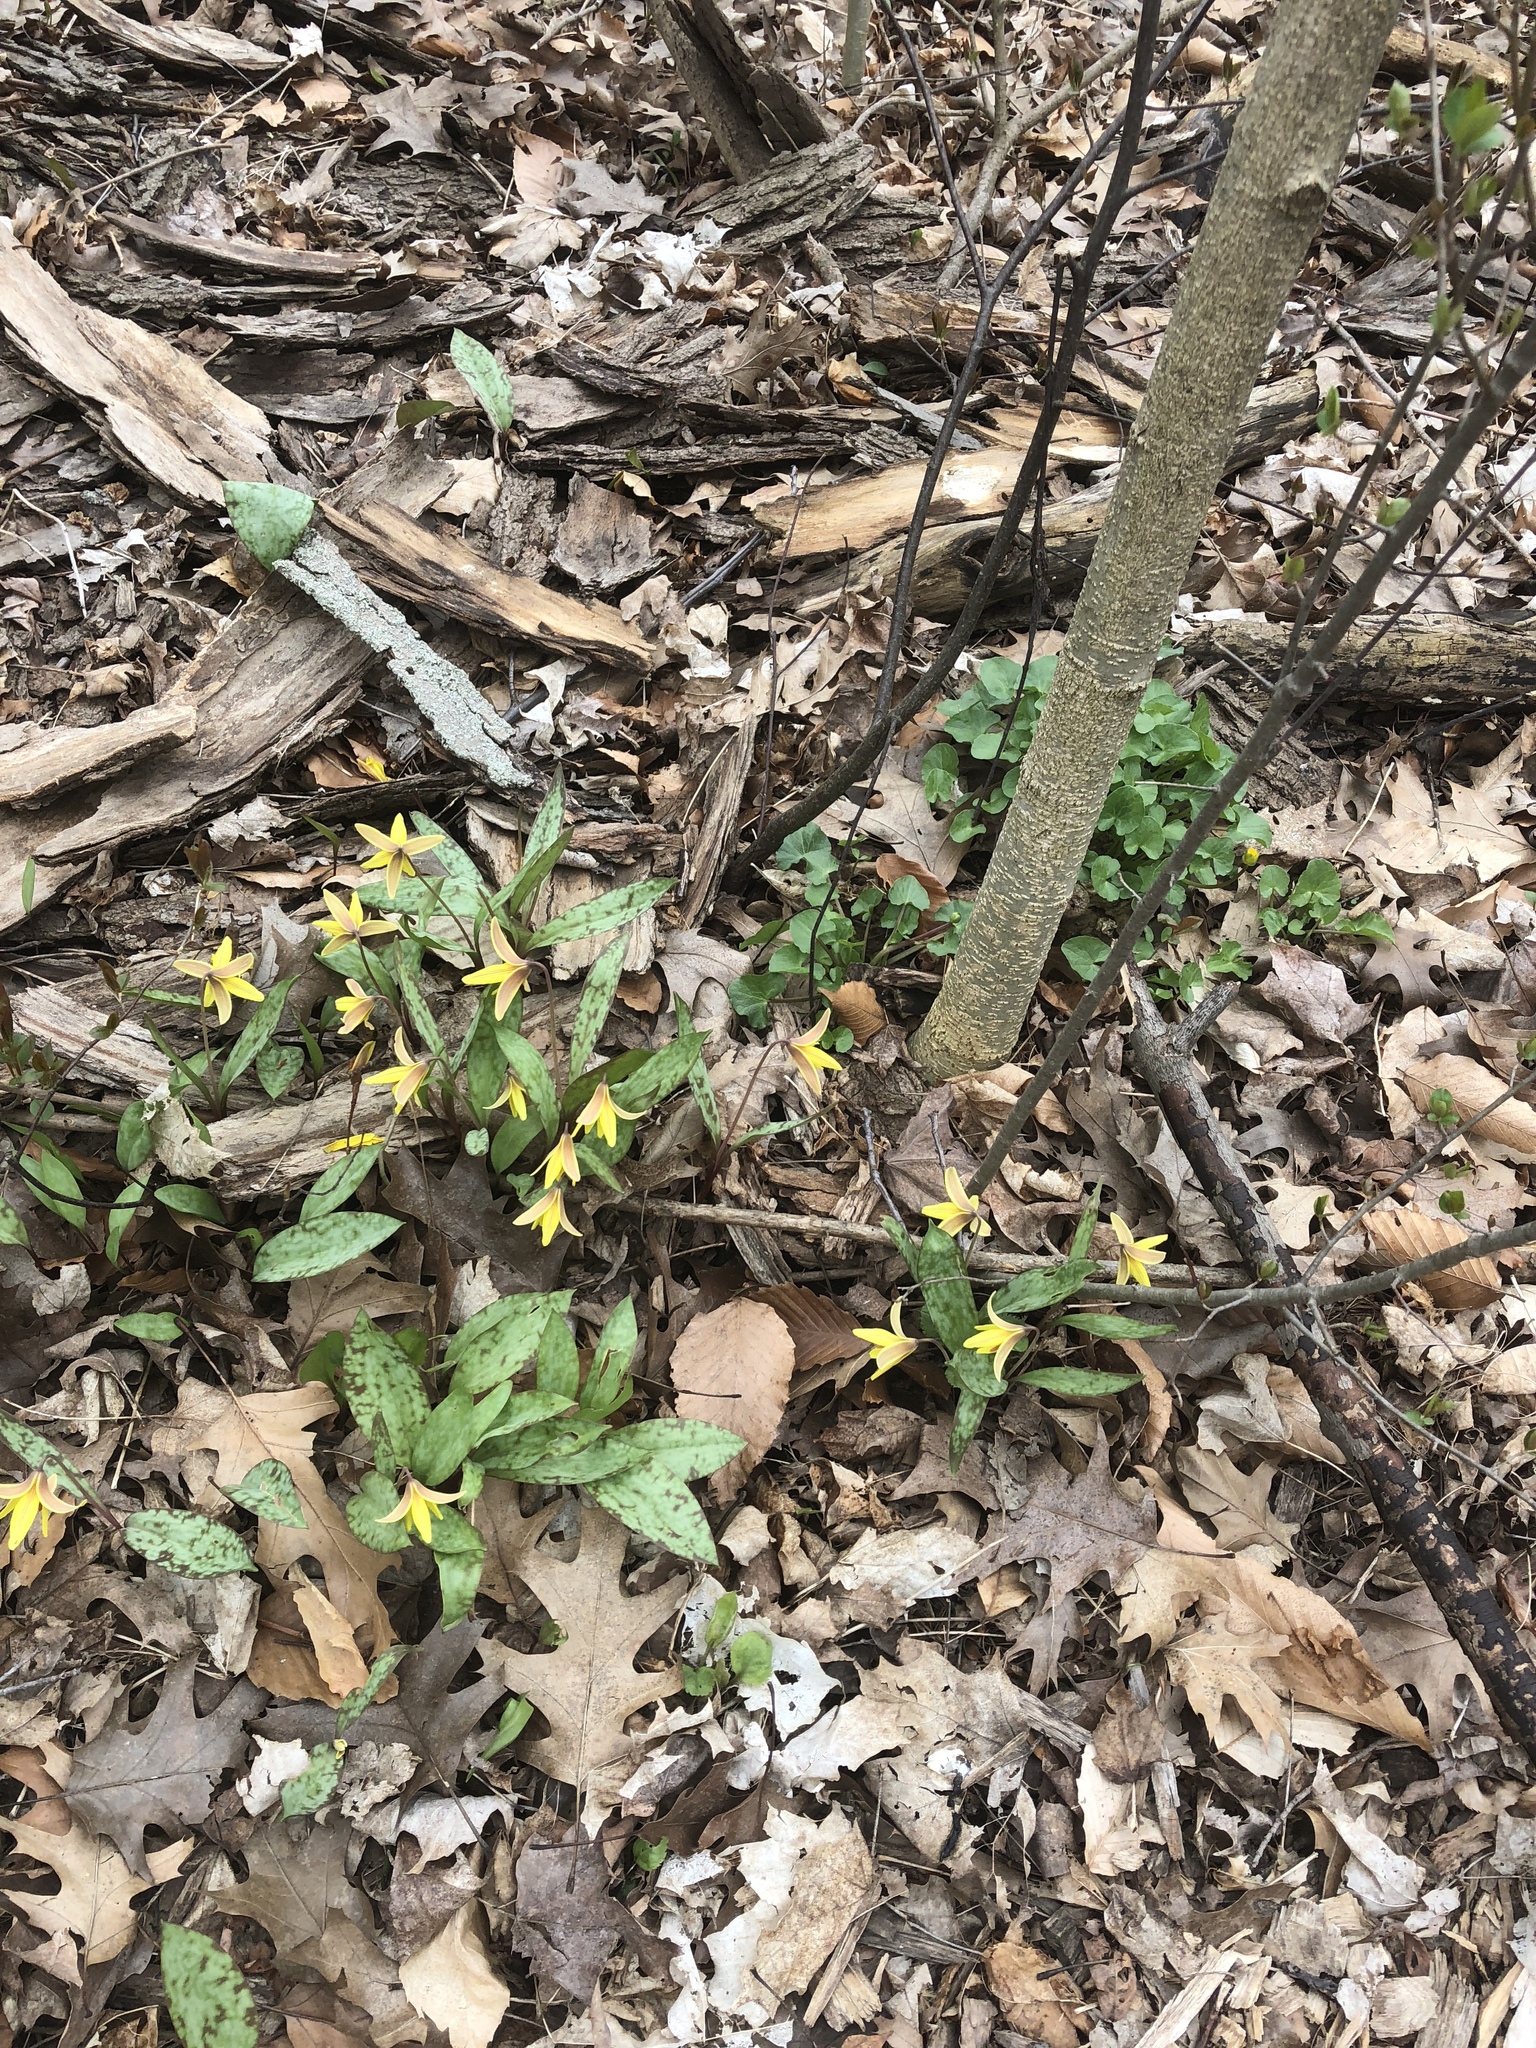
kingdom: Plantae
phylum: Tracheophyta
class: Liliopsida
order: Liliales
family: Liliaceae
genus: Erythronium
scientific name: Erythronium americanum
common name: Yellow adder's-tongue
